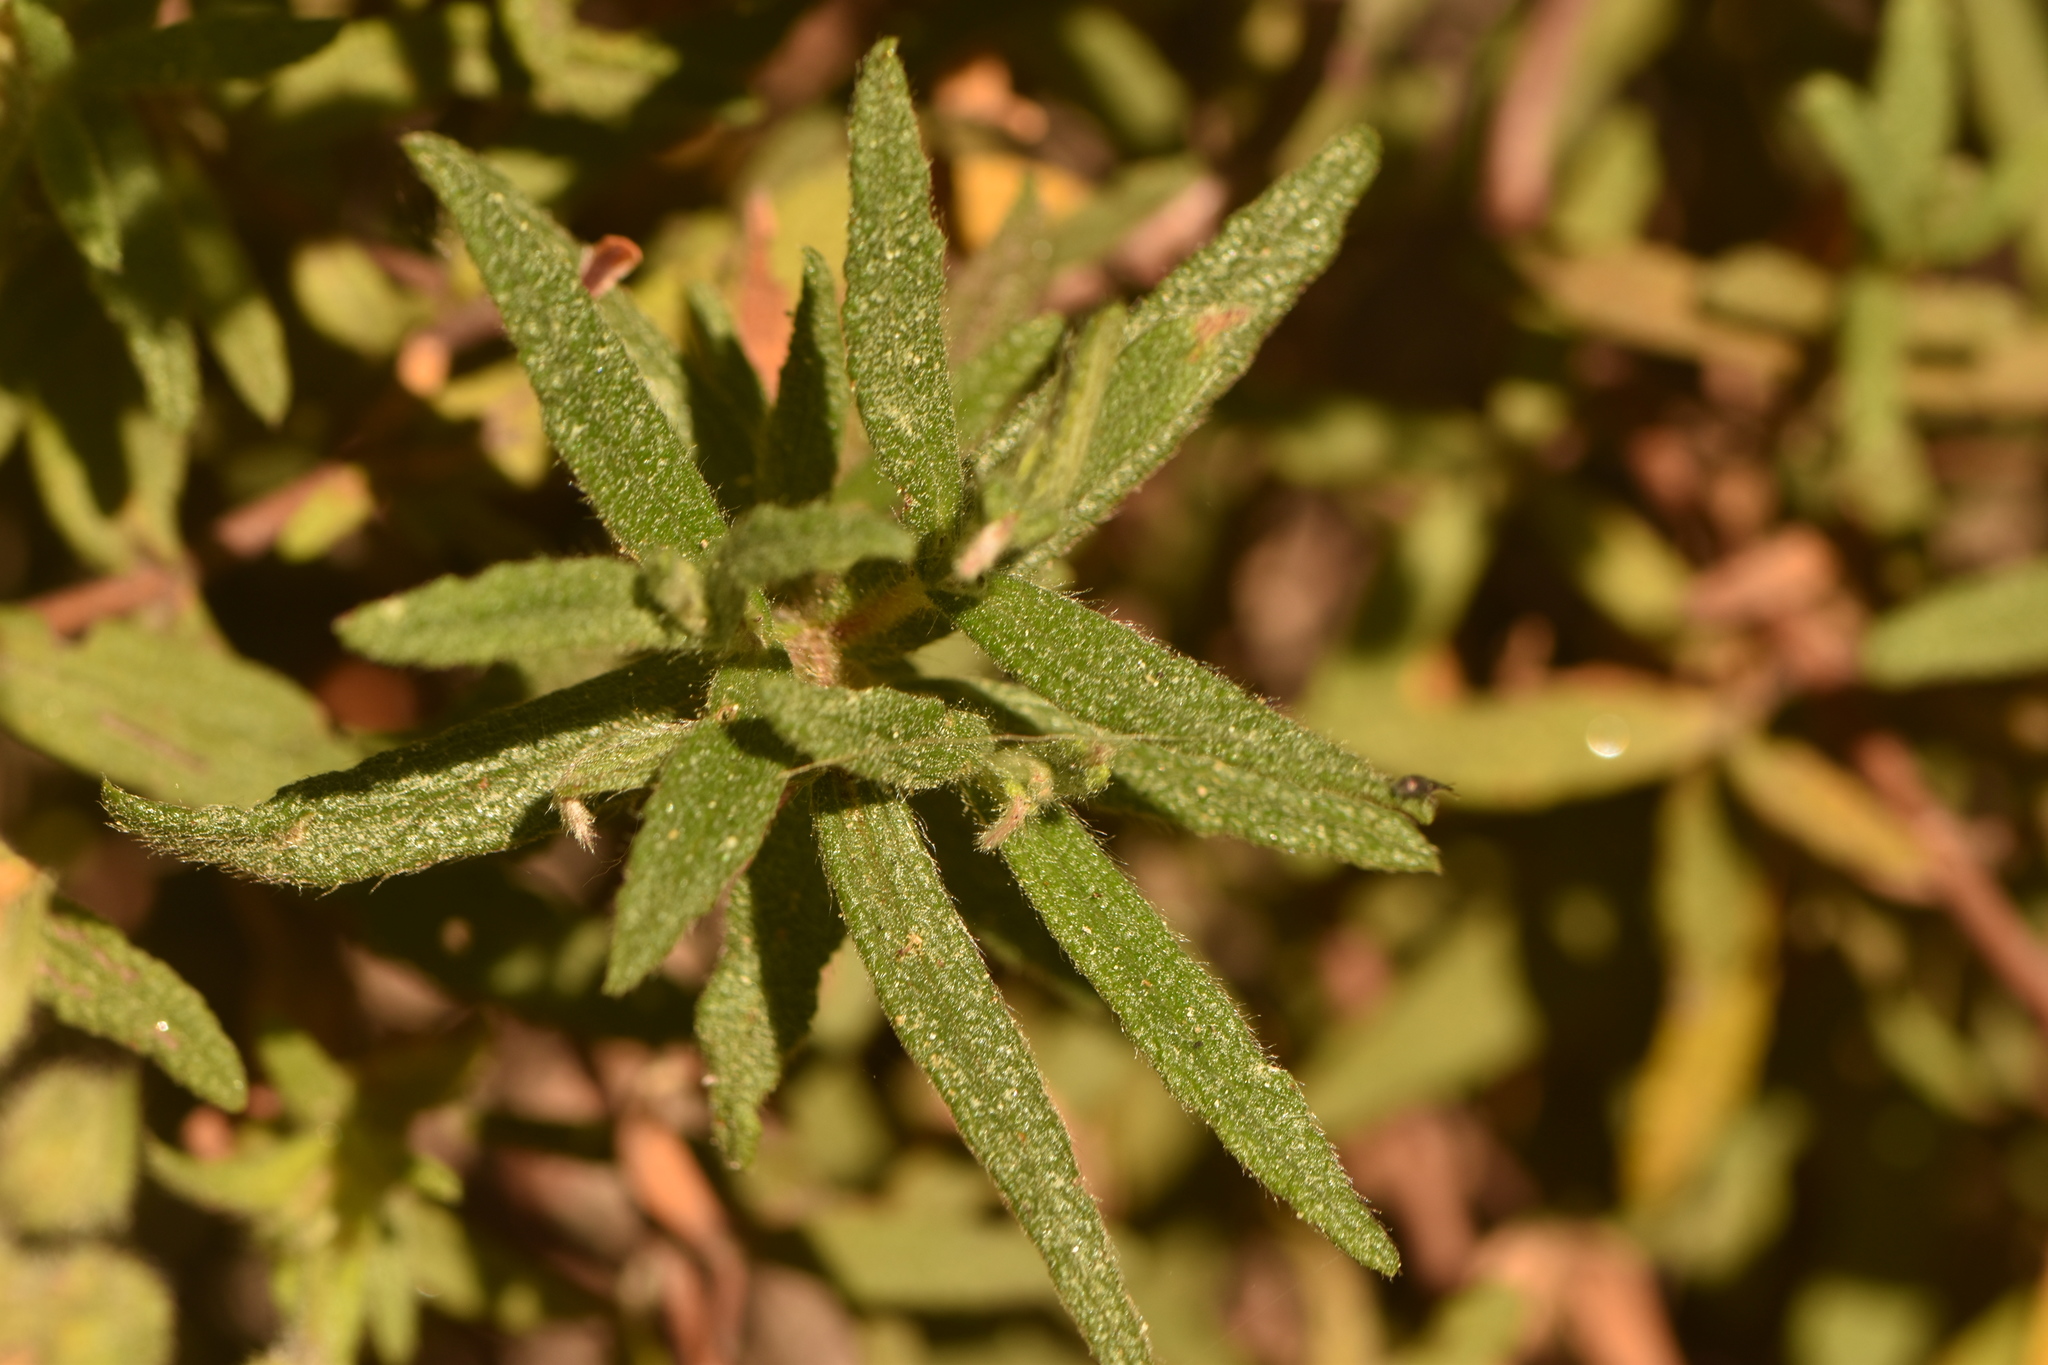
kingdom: Plantae
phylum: Tracheophyta
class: Magnoliopsida
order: Malvales
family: Cistaceae
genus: Cistus
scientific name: Cistus monspeliensis
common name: Montpelier cistus
